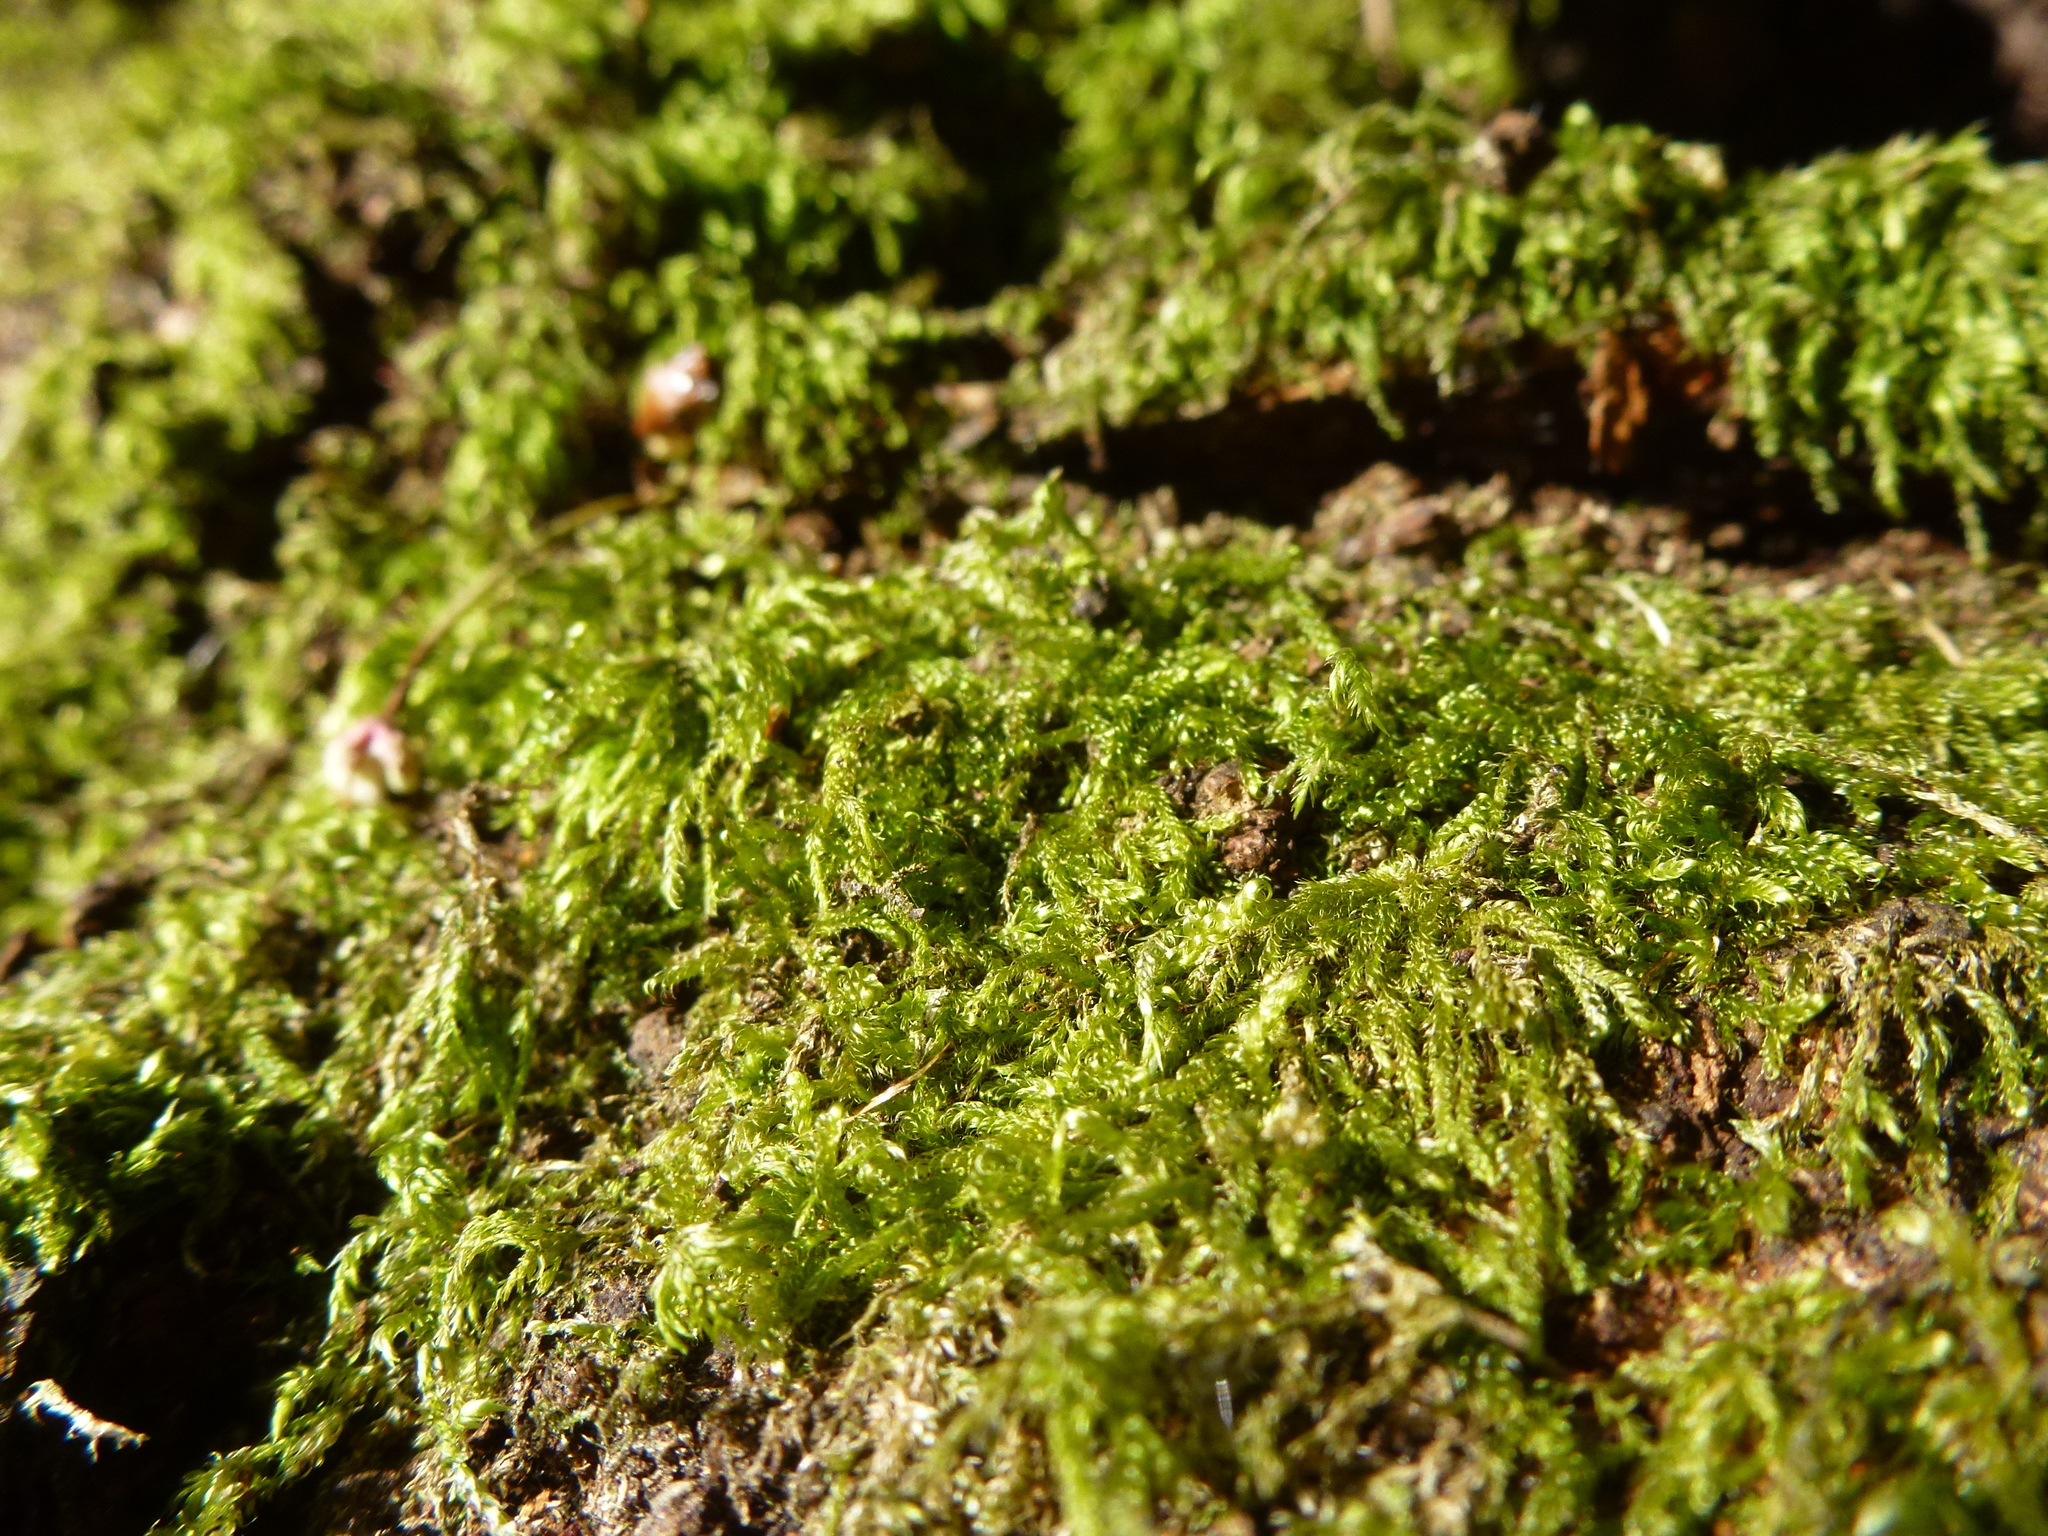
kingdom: Plantae
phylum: Bryophyta
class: Bryopsida
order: Hypnales
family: Hypnaceae
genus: Hypnum
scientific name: Hypnum cupressiforme
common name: Cypress-leaved plait-moss
